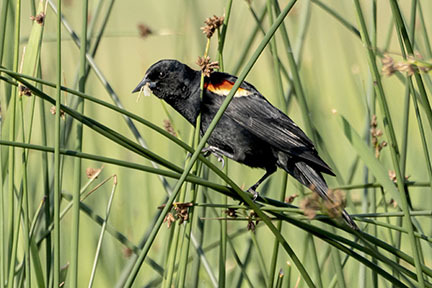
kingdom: Animalia
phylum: Chordata
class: Aves
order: Passeriformes
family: Icteridae
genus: Agelaius
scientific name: Agelaius phoeniceus
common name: Red-winged blackbird
